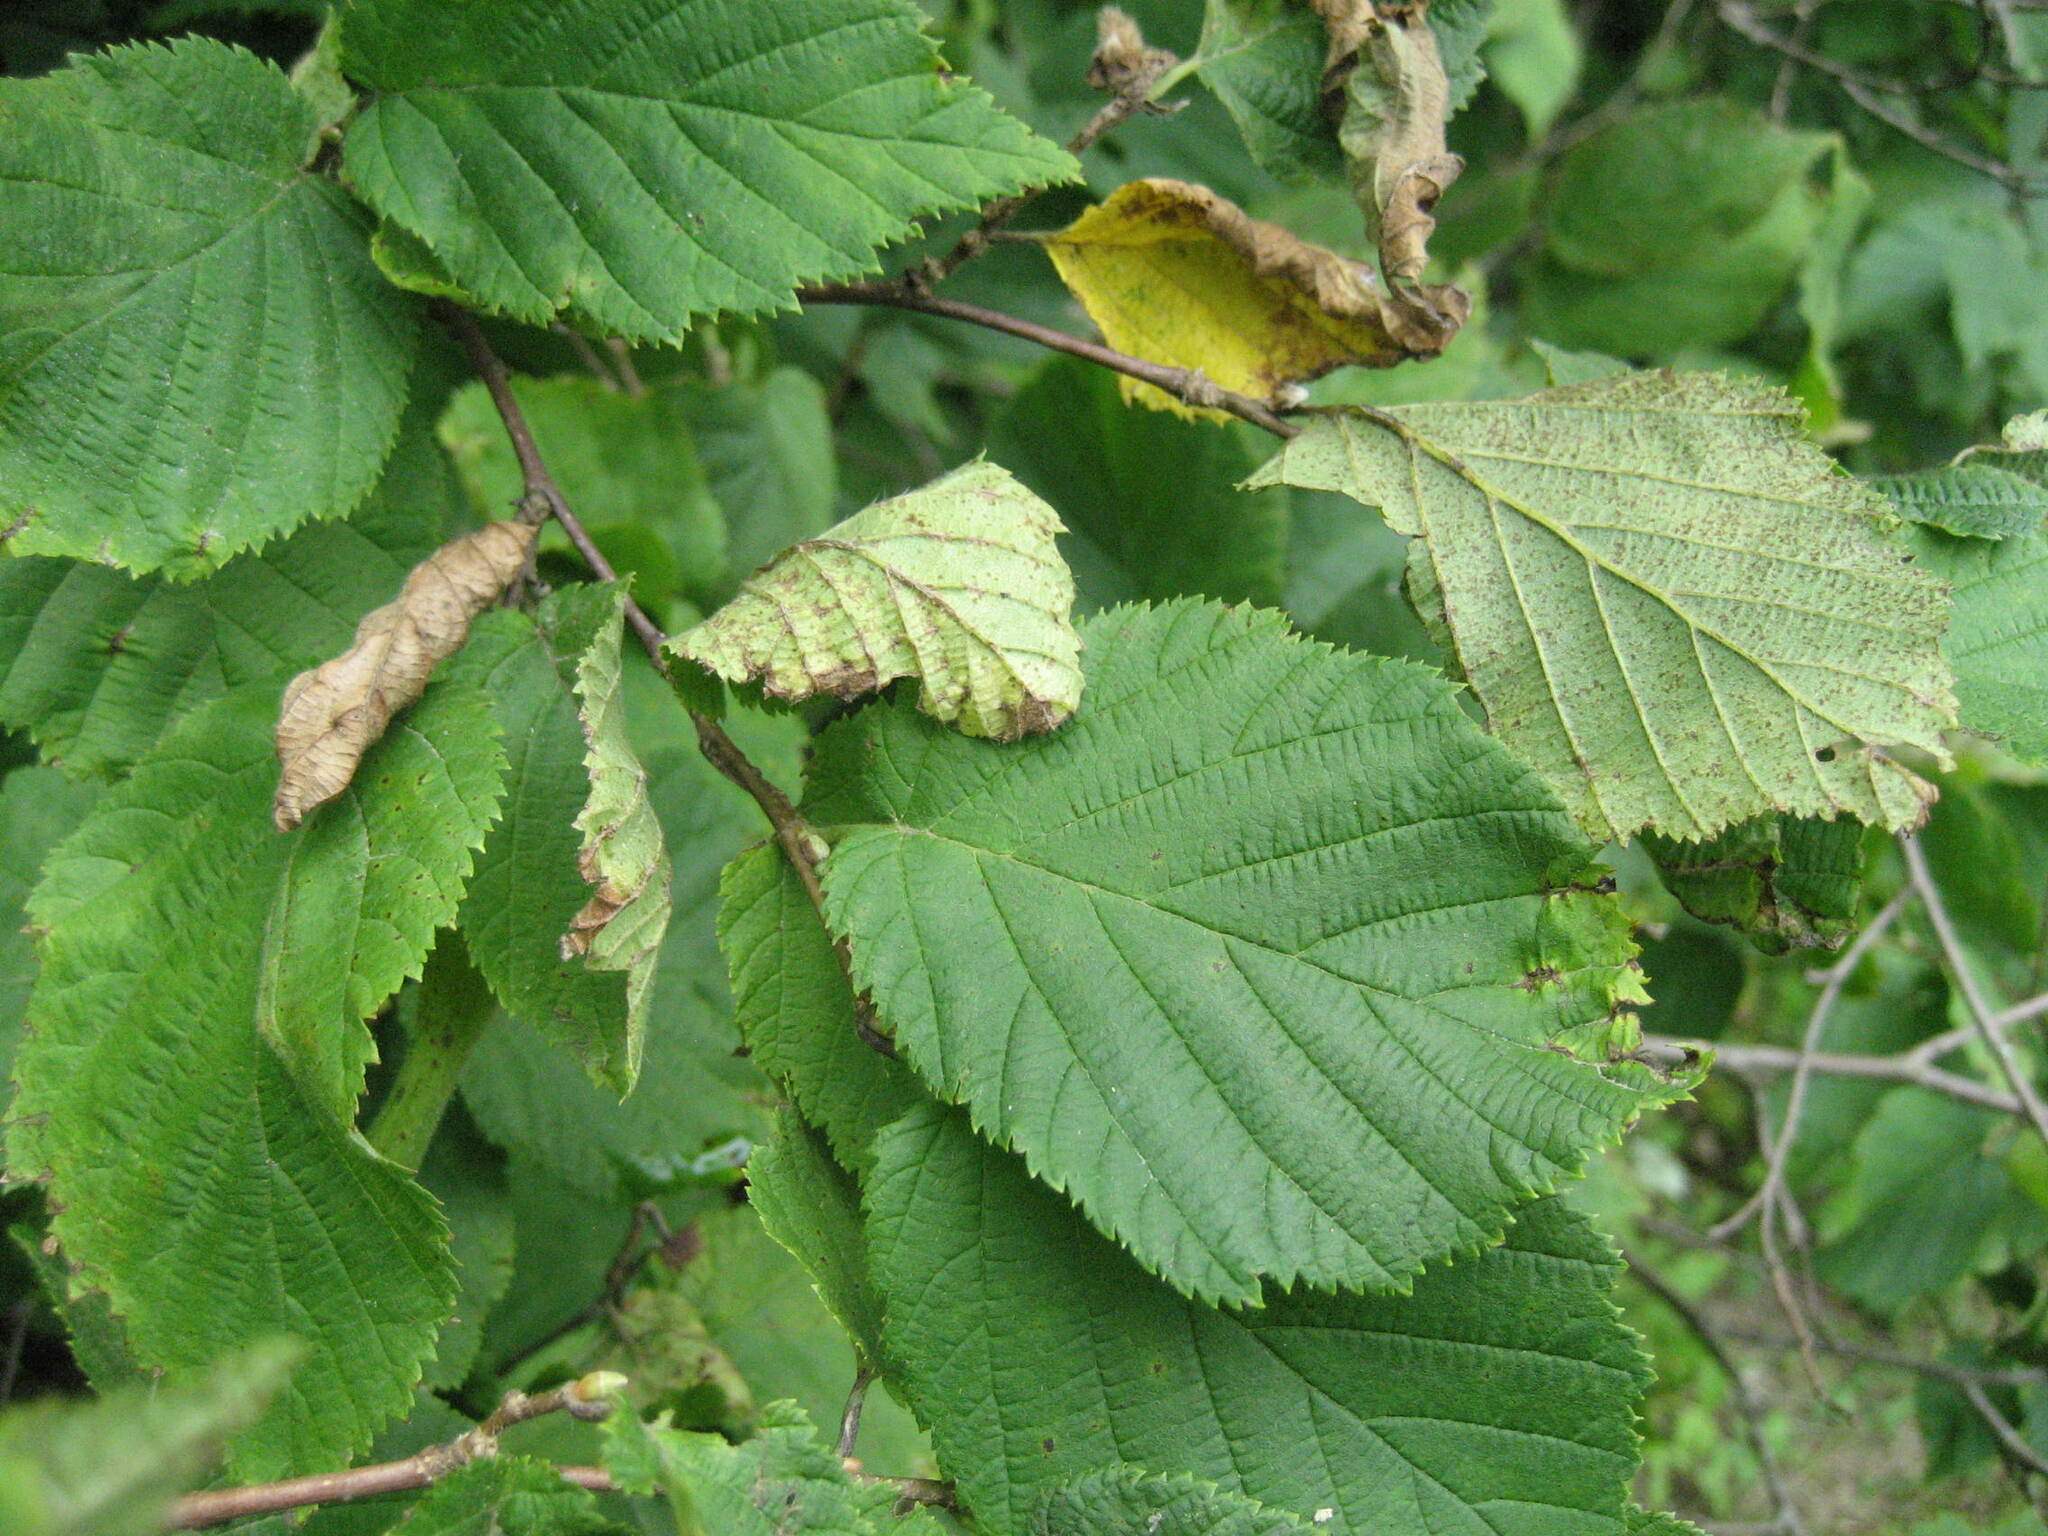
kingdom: Plantae
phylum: Tracheophyta
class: Magnoliopsida
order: Fagales
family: Betulaceae
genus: Corylus
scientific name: Corylus cornuta
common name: Beaked hazel
